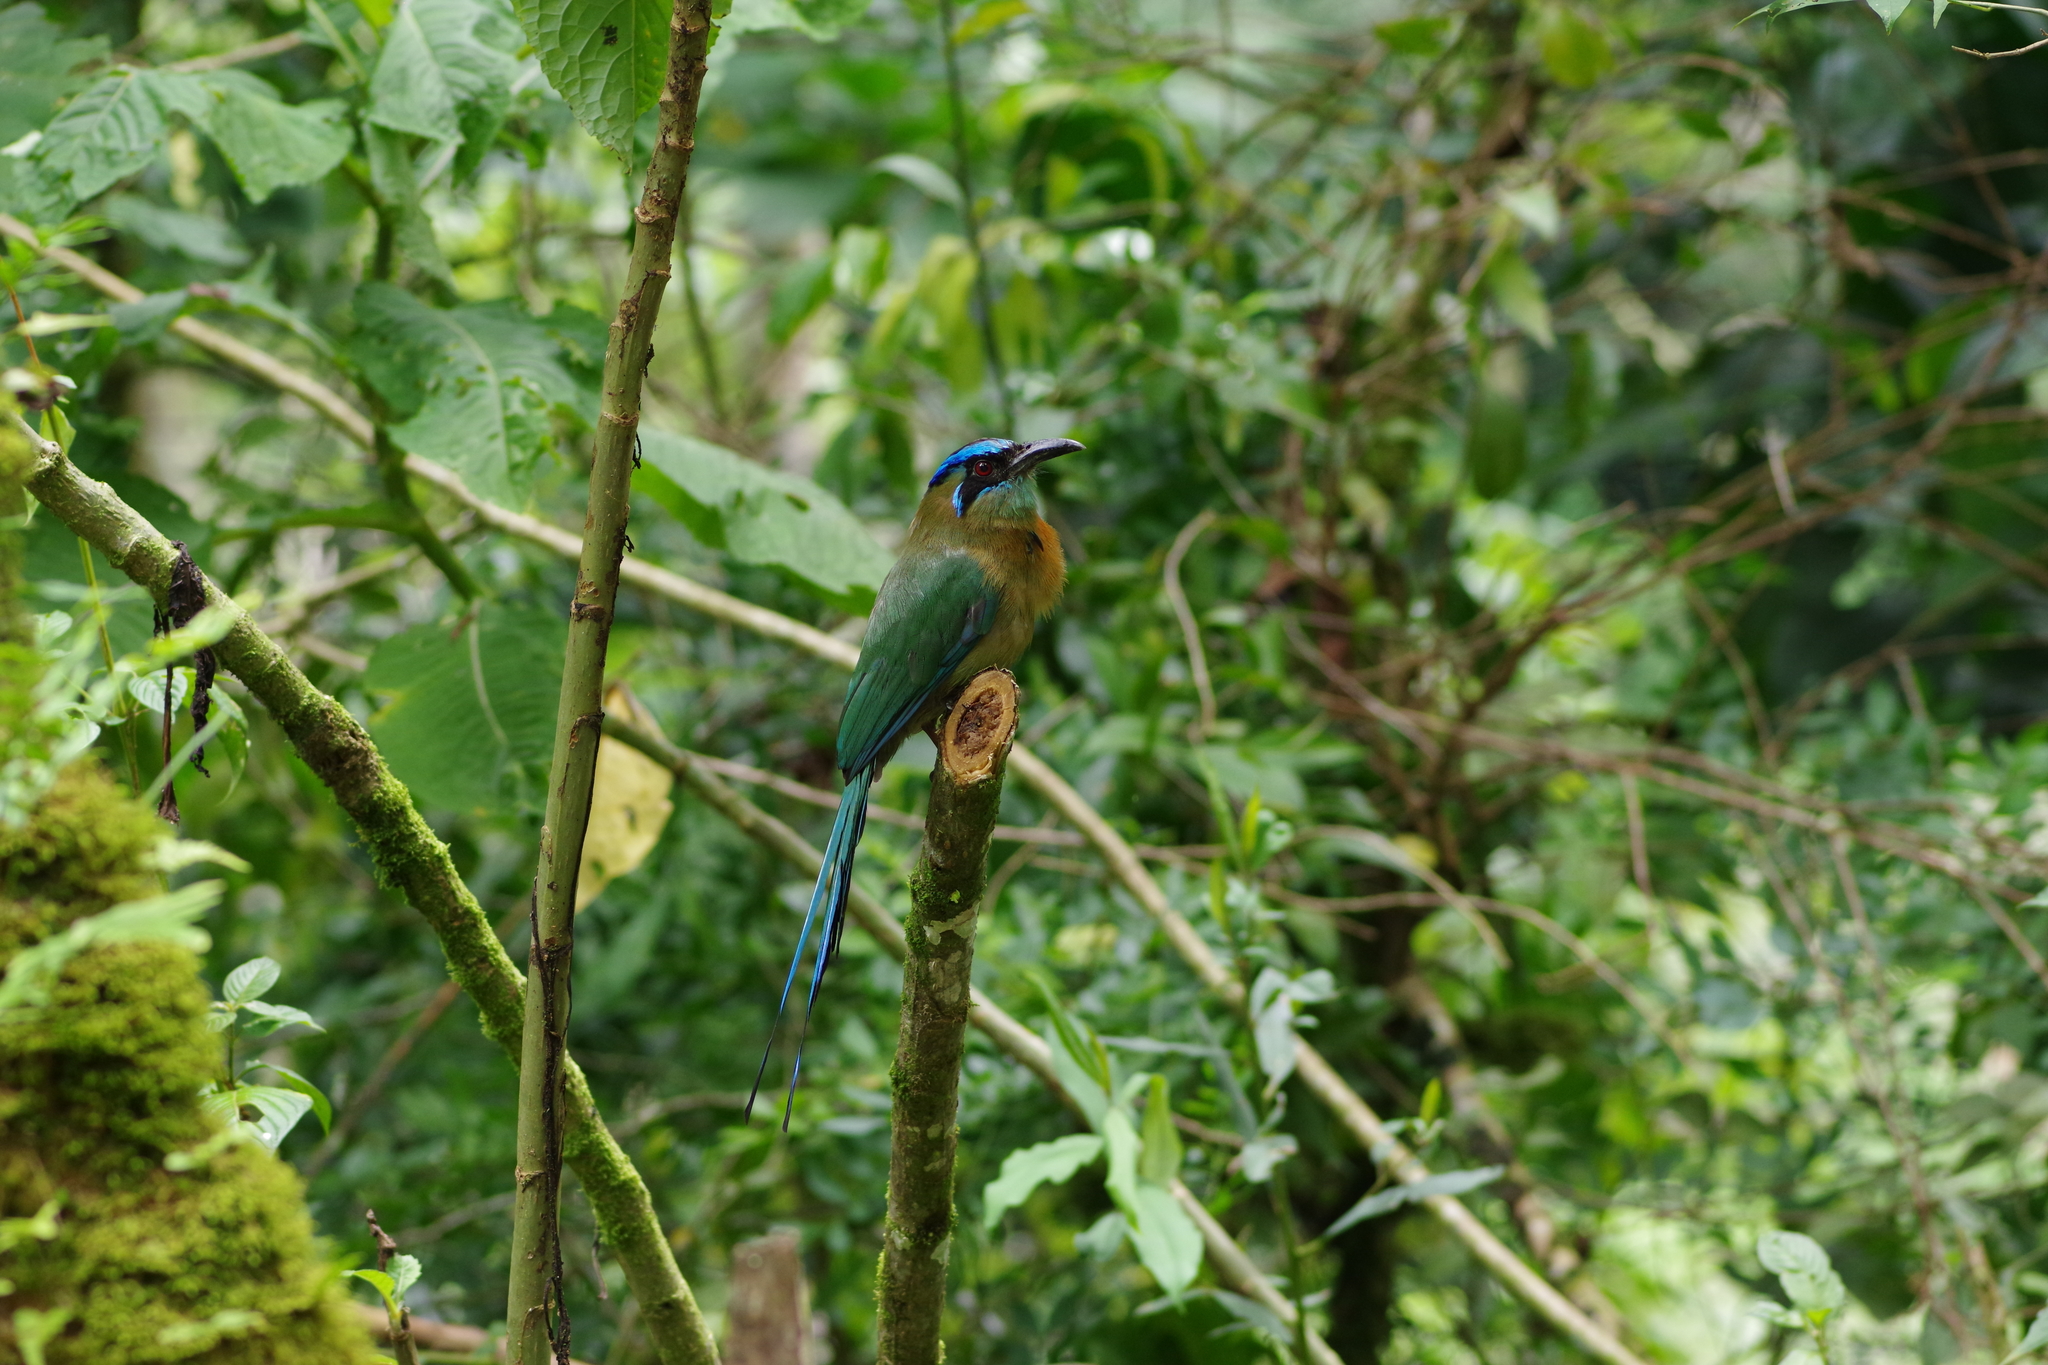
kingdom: Animalia
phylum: Chordata
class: Aves
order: Coraciiformes
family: Momotidae
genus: Momotus
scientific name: Momotus lessonii
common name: Lesson's motmot
